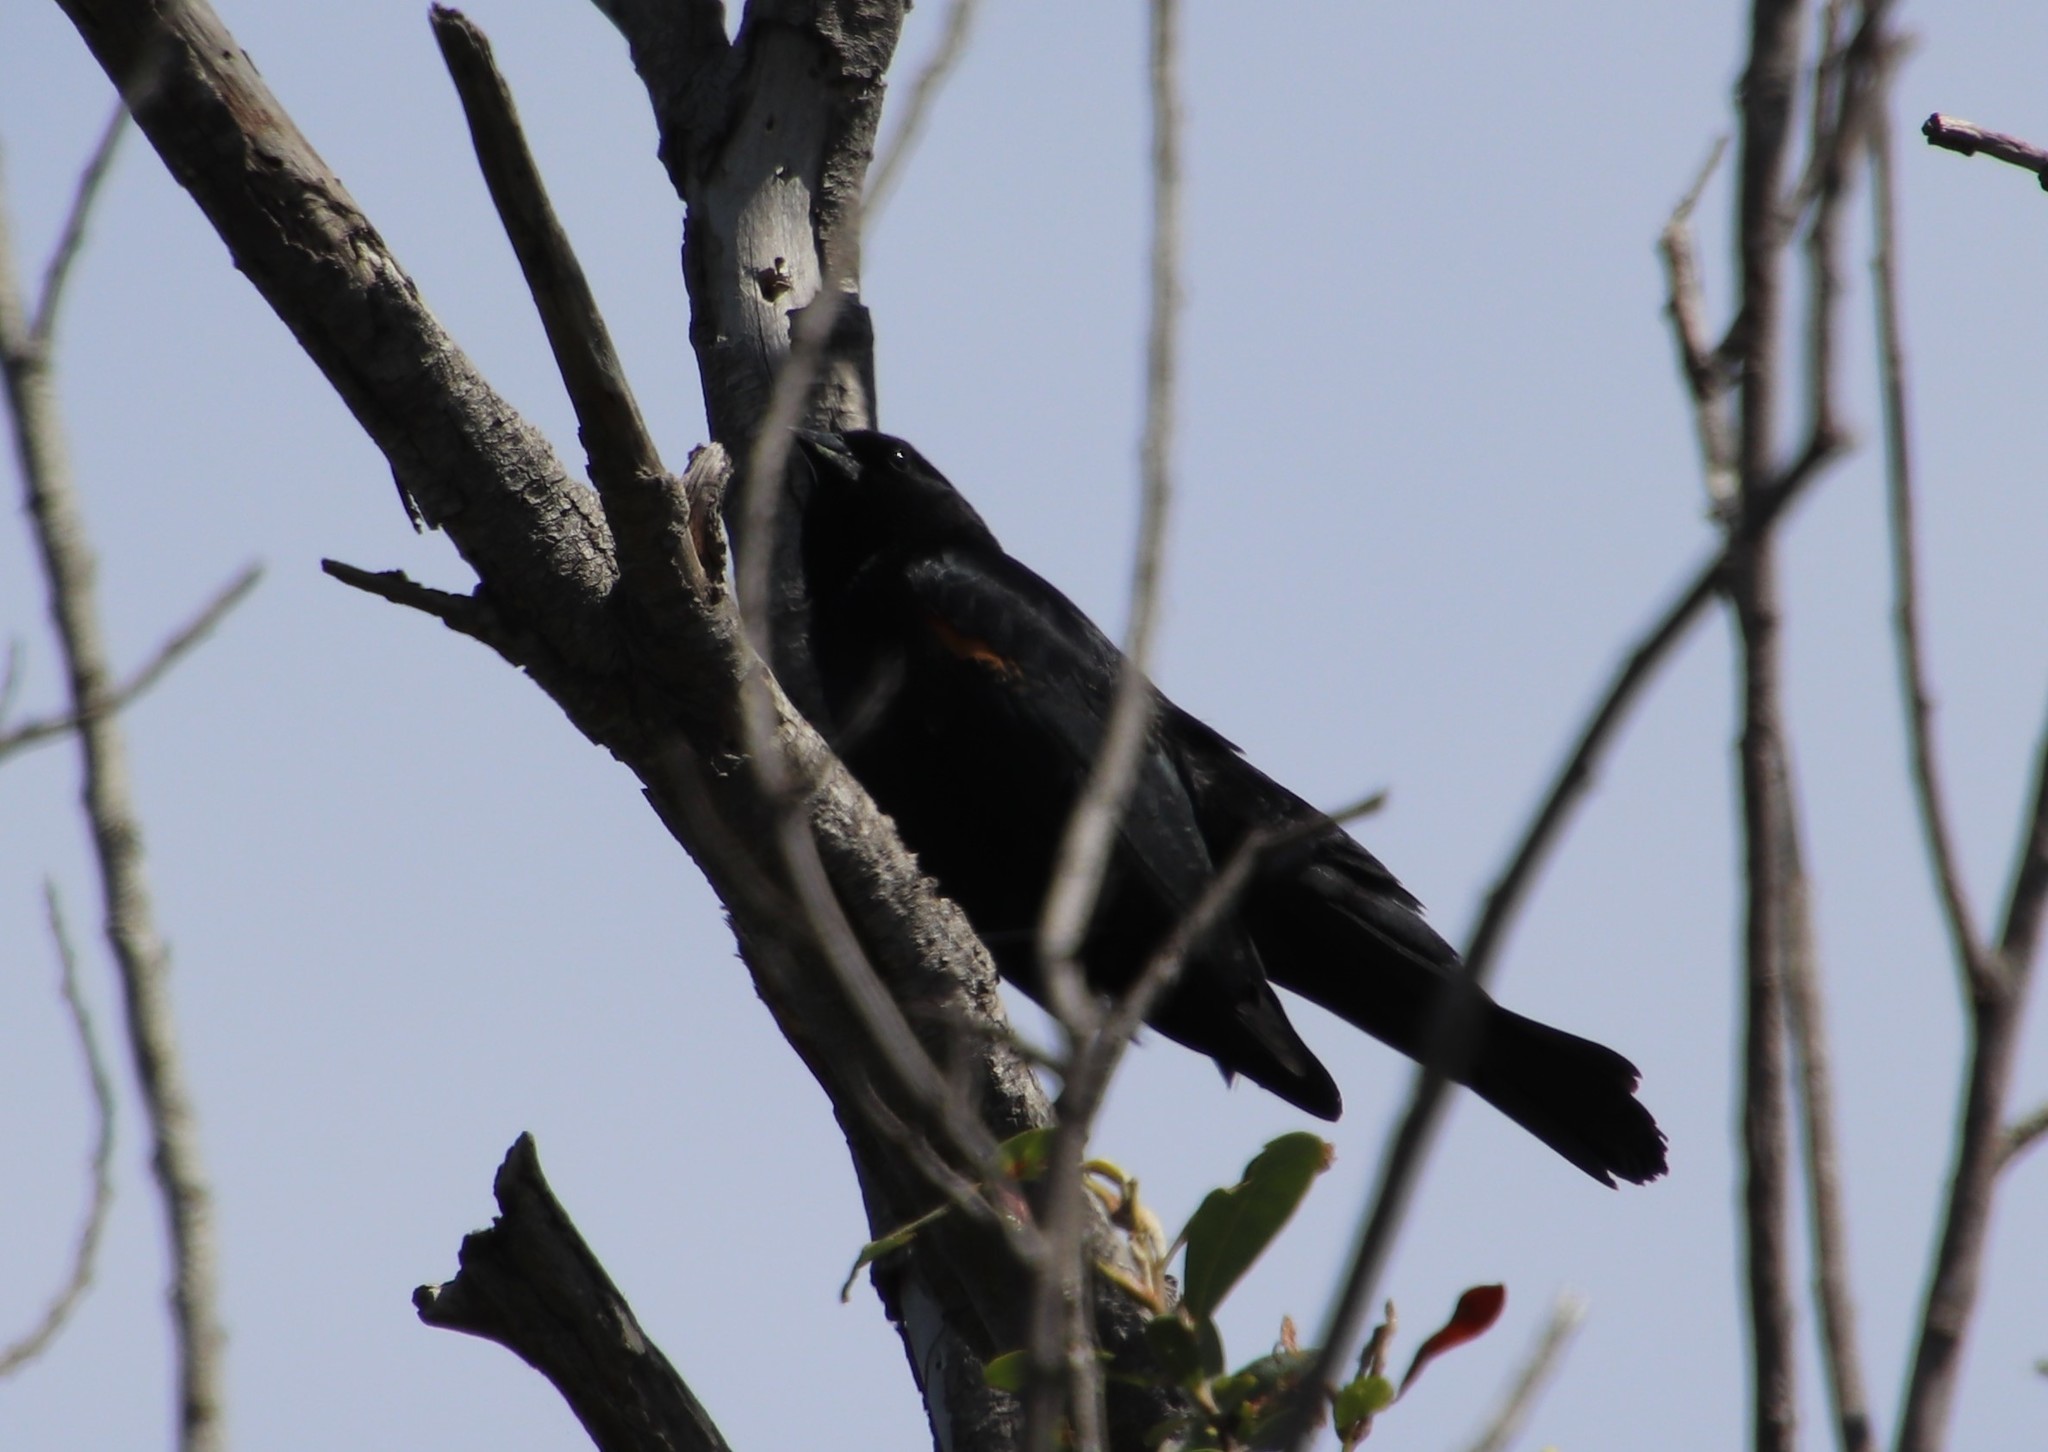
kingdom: Animalia
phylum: Chordata
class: Aves
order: Passeriformes
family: Icteridae
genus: Agelaius
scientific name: Agelaius phoeniceus
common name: Red-winged blackbird
